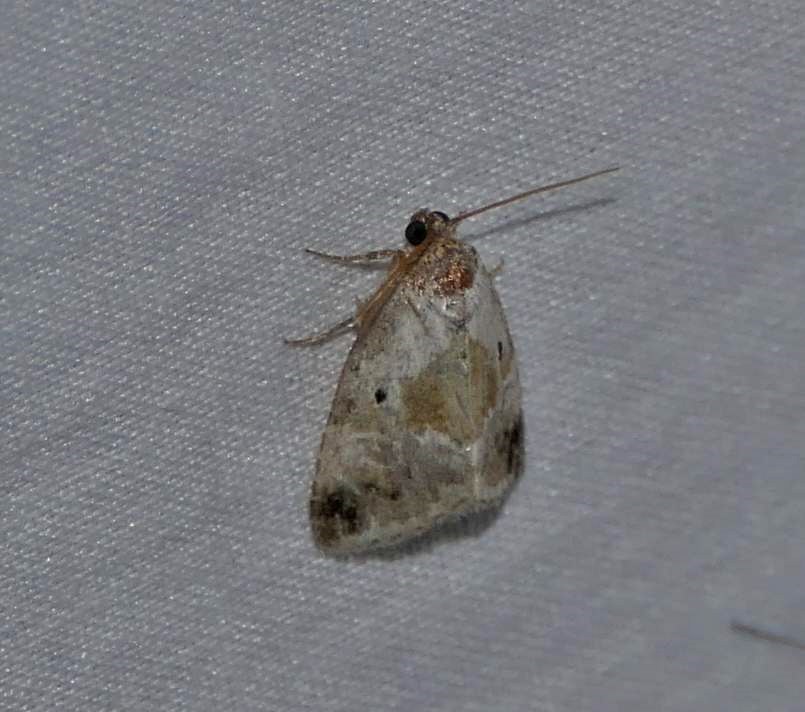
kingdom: Animalia
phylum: Arthropoda
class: Insecta
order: Lepidoptera
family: Noctuidae
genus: Maliattha
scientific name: Maliattha synochitis
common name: Black-dotted glyph
